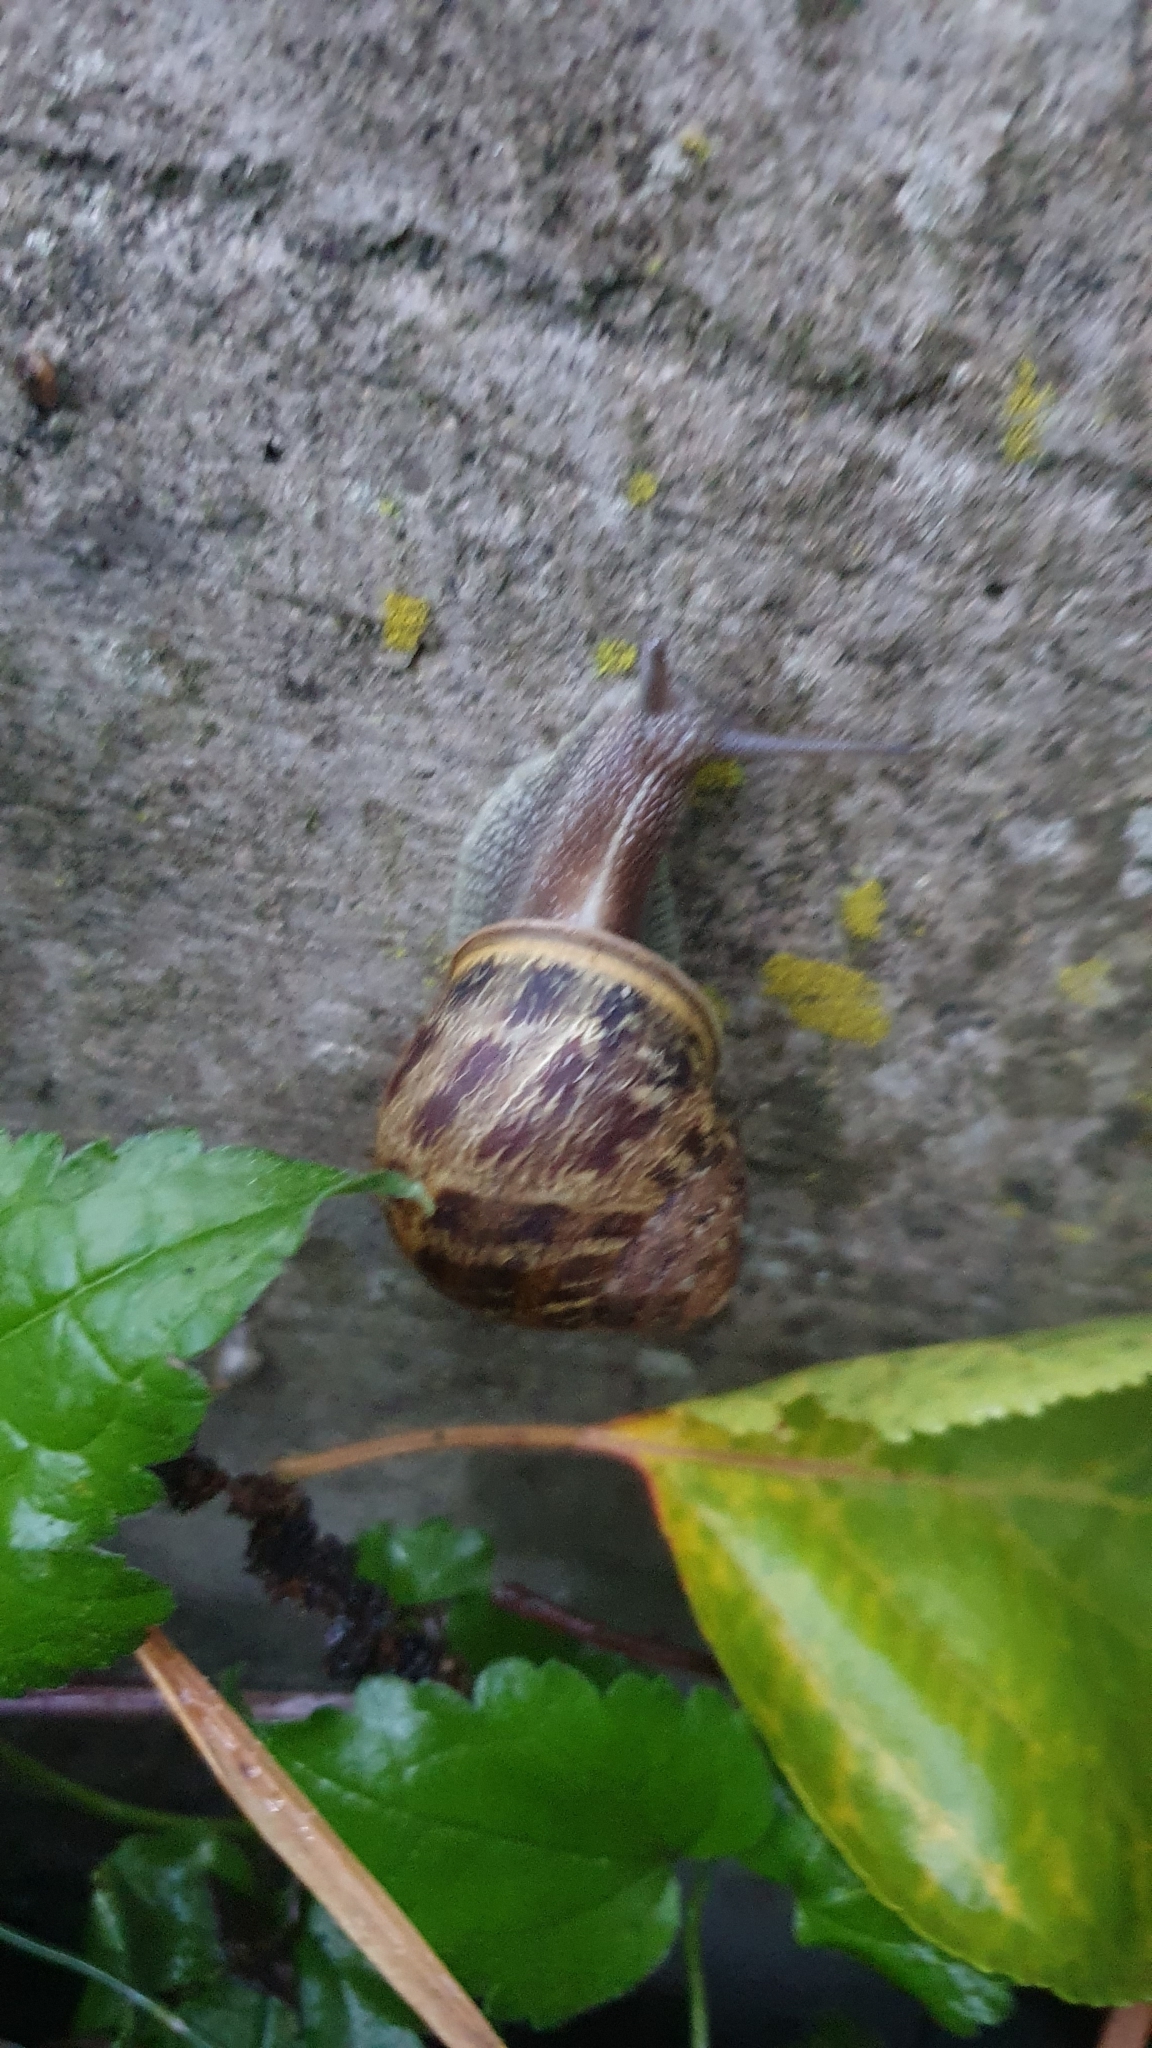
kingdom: Animalia
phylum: Mollusca
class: Gastropoda
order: Stylommatophora
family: Helicidae
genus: Cornu
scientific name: Cornu aspersum
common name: Brown garden snail
